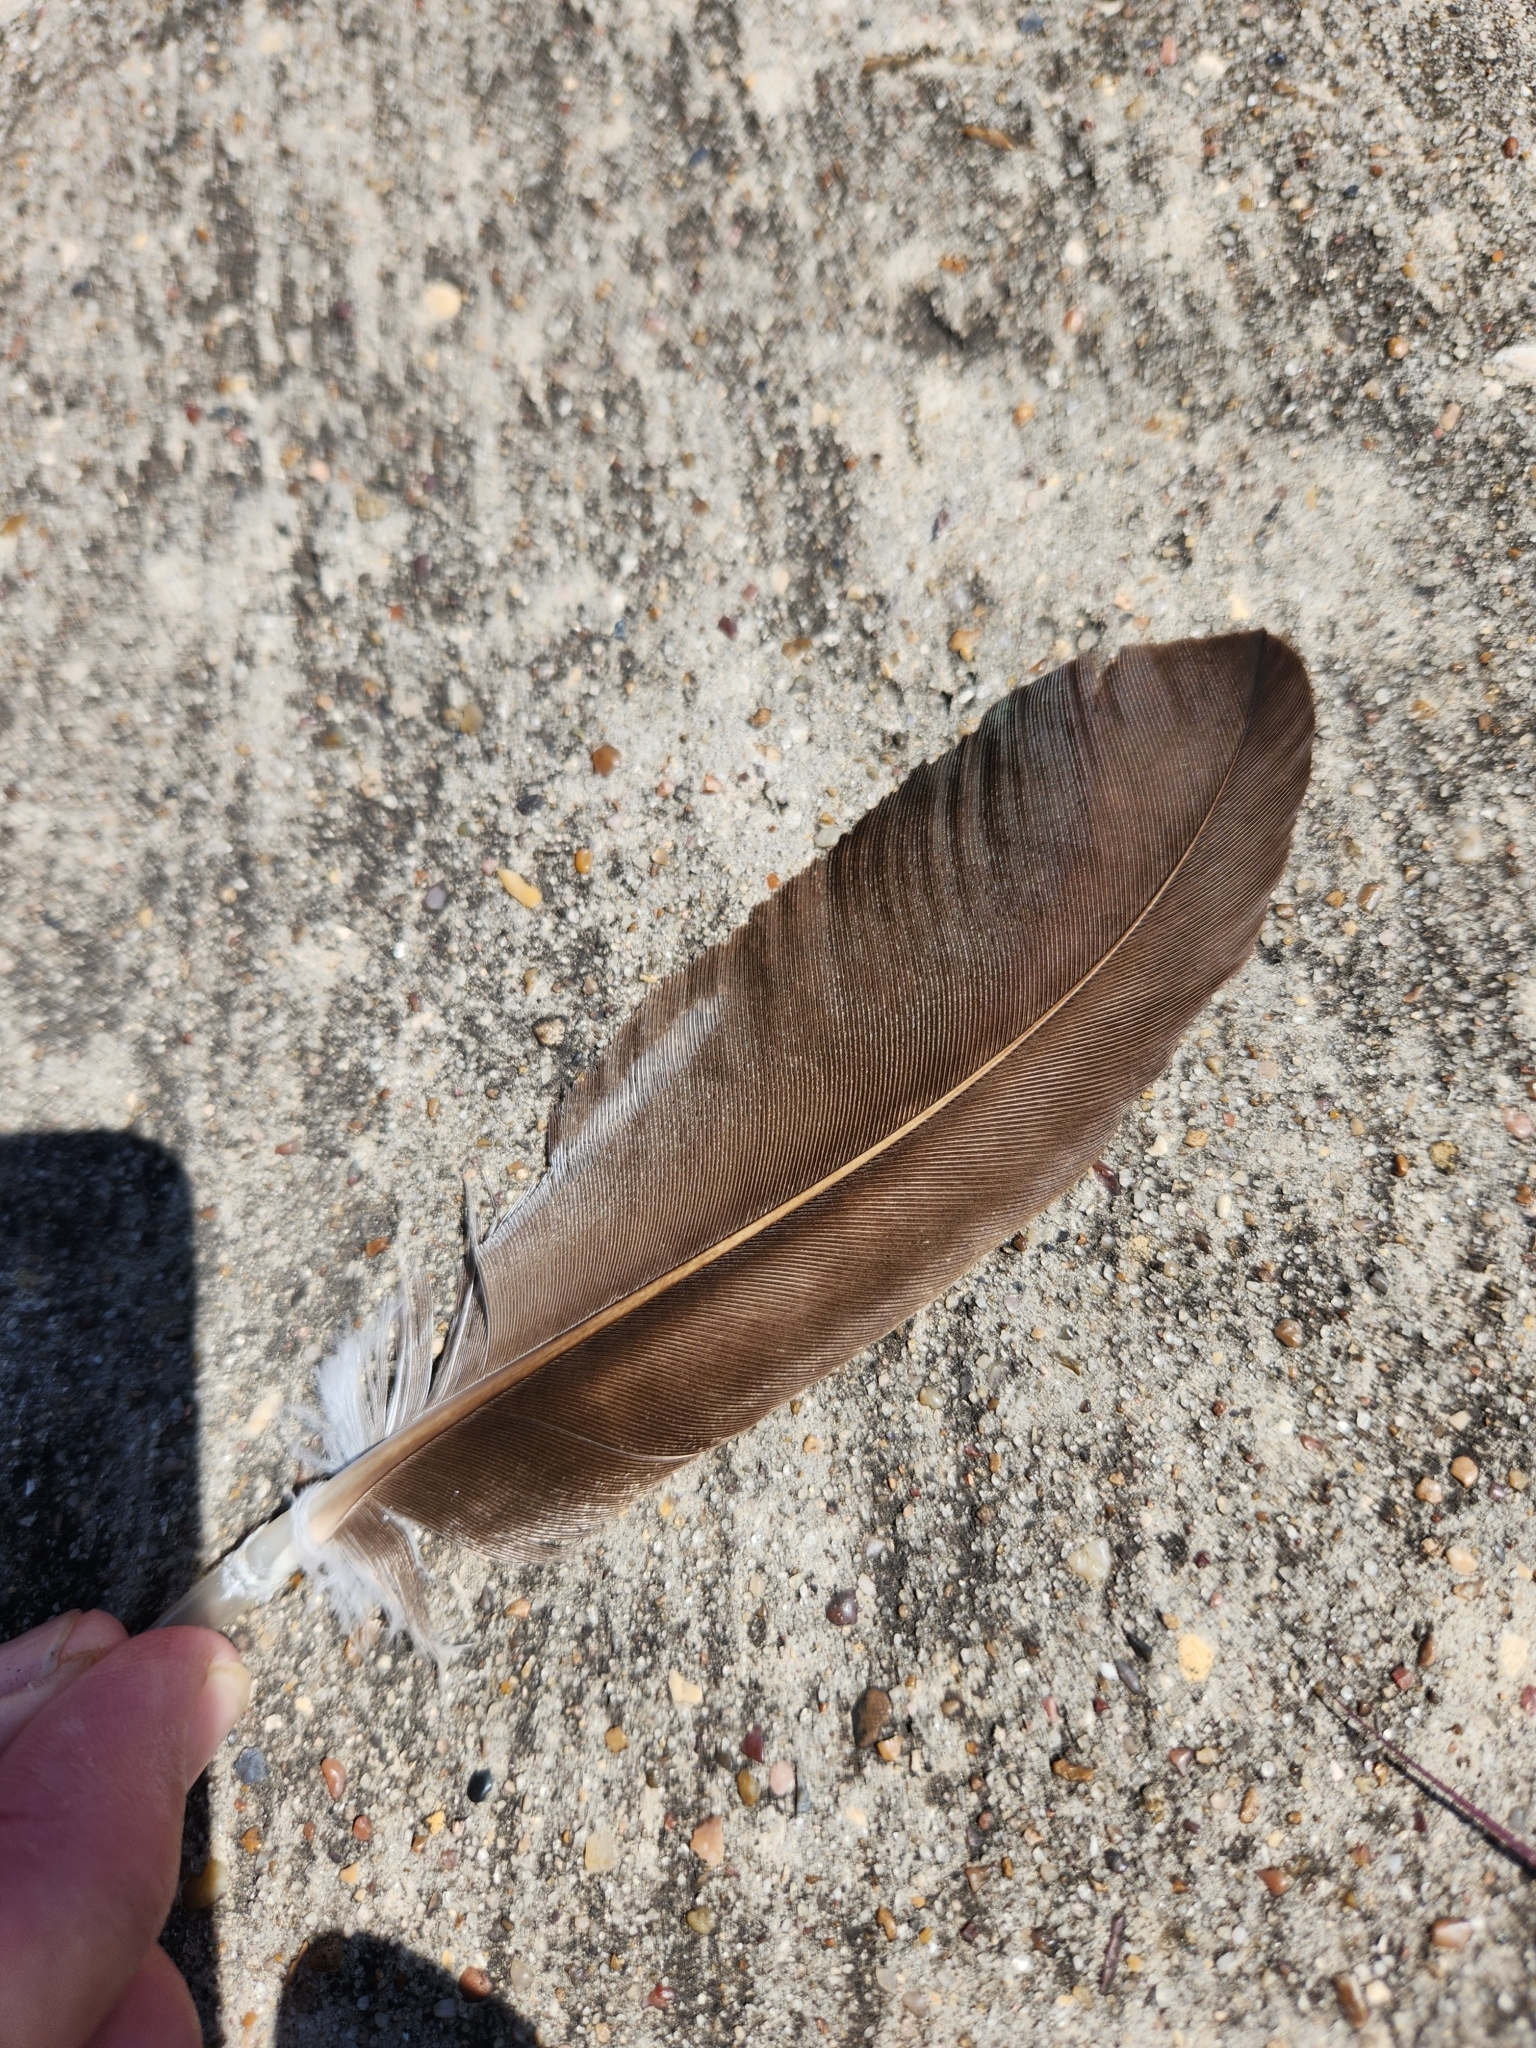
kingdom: Animalia
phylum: Chordata
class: Aves
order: Accipitriformes
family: Cathartidae
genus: Cathartes
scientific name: Cathartes aura
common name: Turkey vulture
